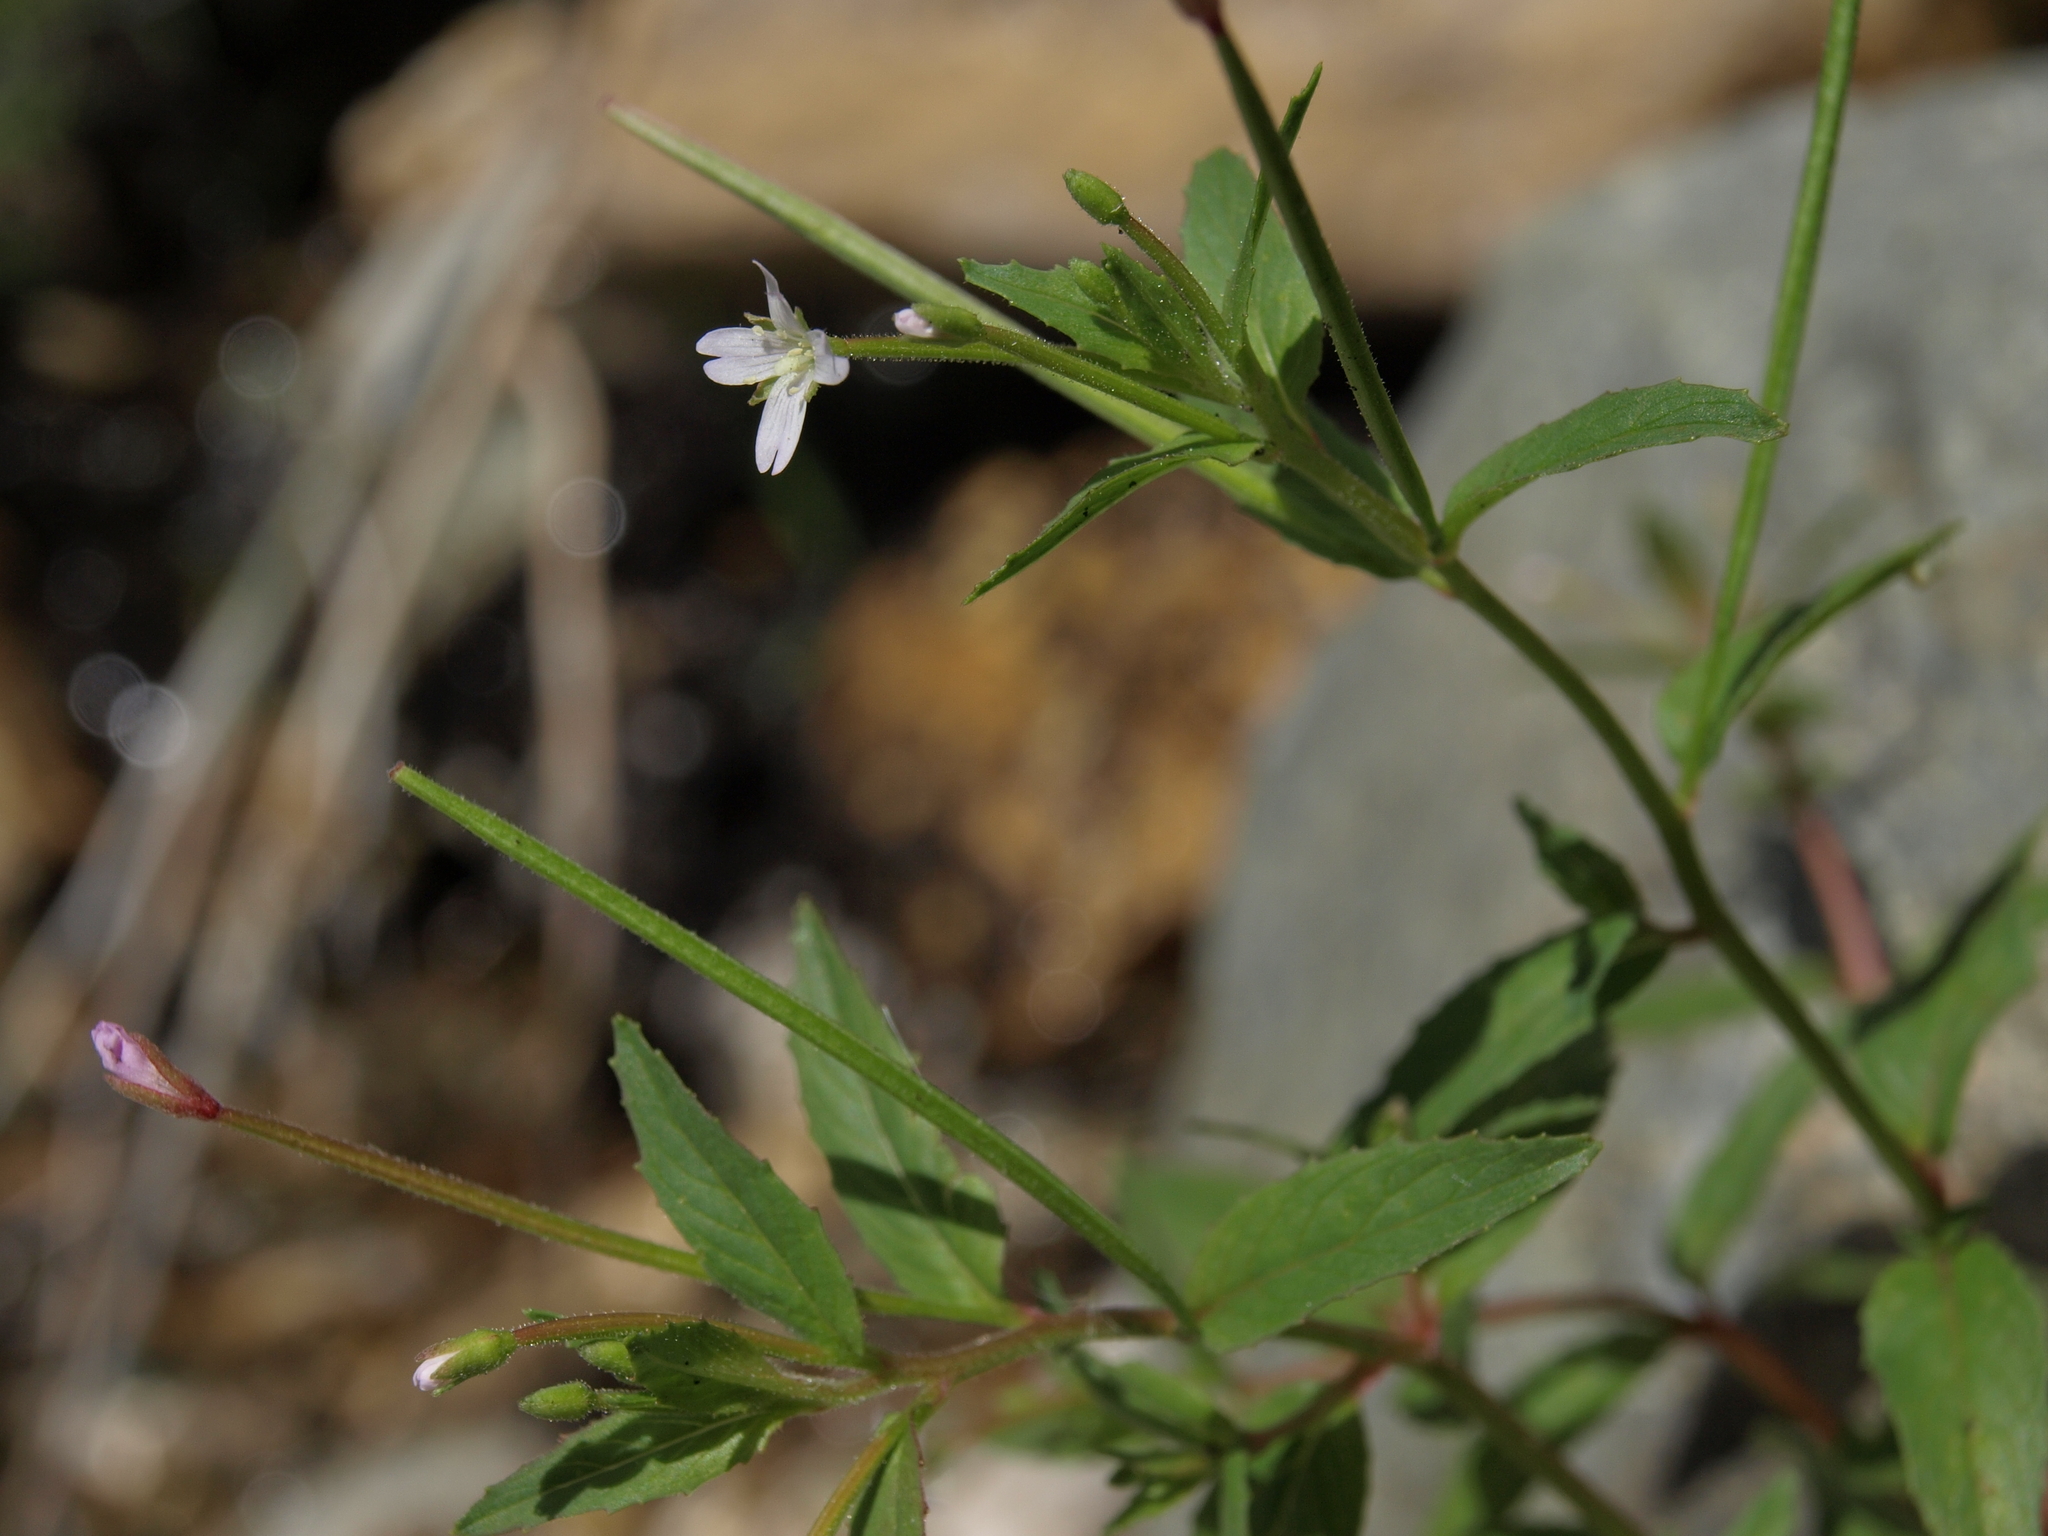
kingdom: Plantae
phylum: Tracheophyta
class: Magnoliopsida
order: Myrtales
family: Onagraceae
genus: Epilobium
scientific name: Epilobium ciliatum
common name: American willowherb
